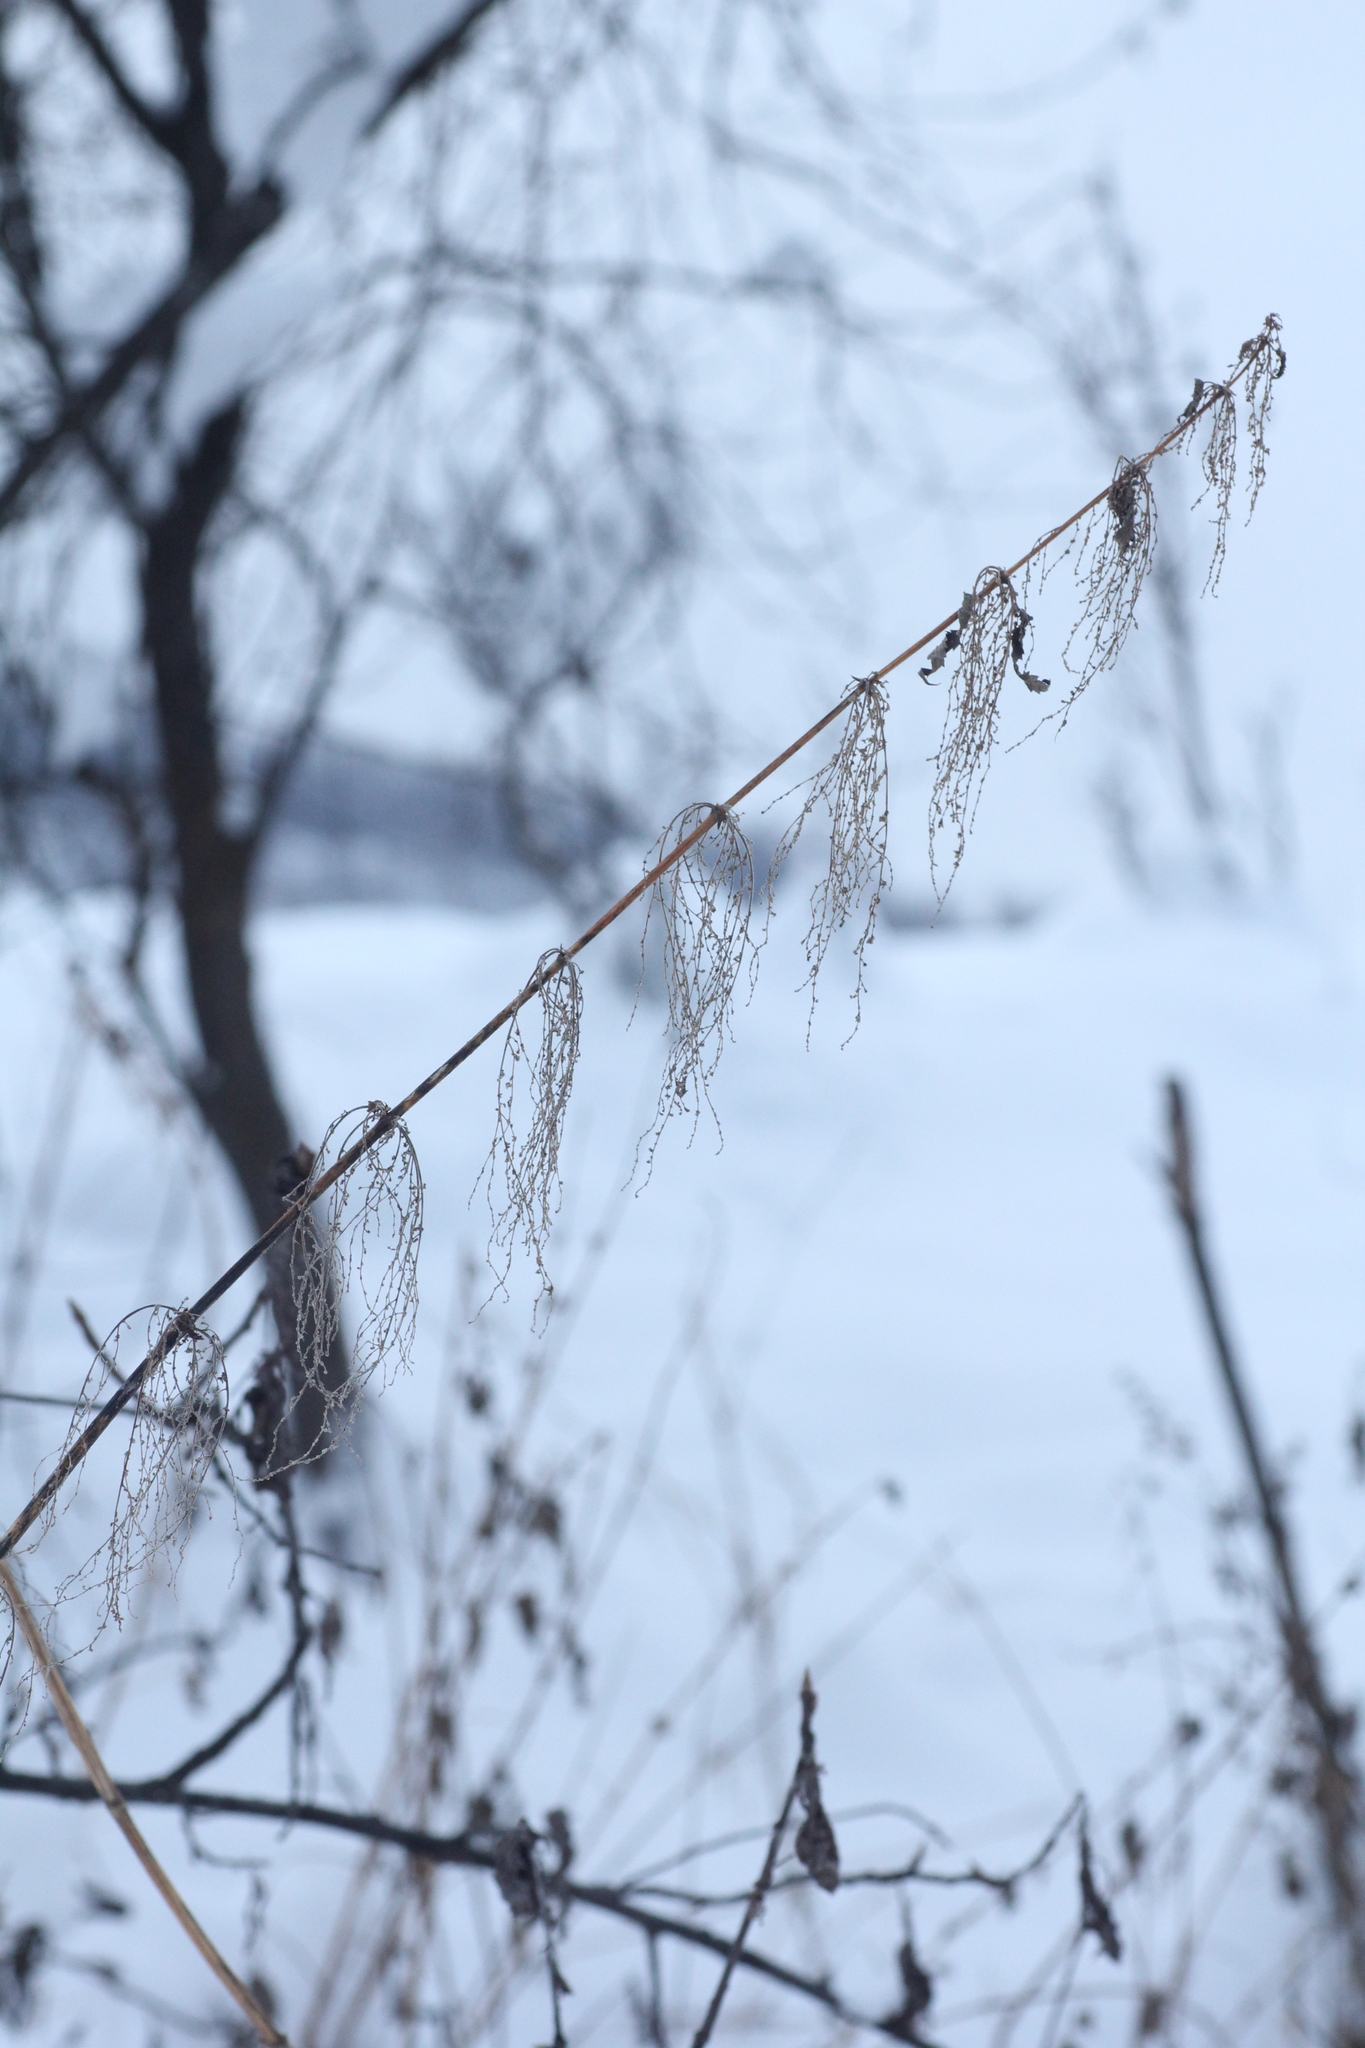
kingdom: Plantae
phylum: Tracheophyta
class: Magnoliopsida
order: Rosales
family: Urticaceae
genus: Urtica
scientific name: Urtica dioica
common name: Common nettle
